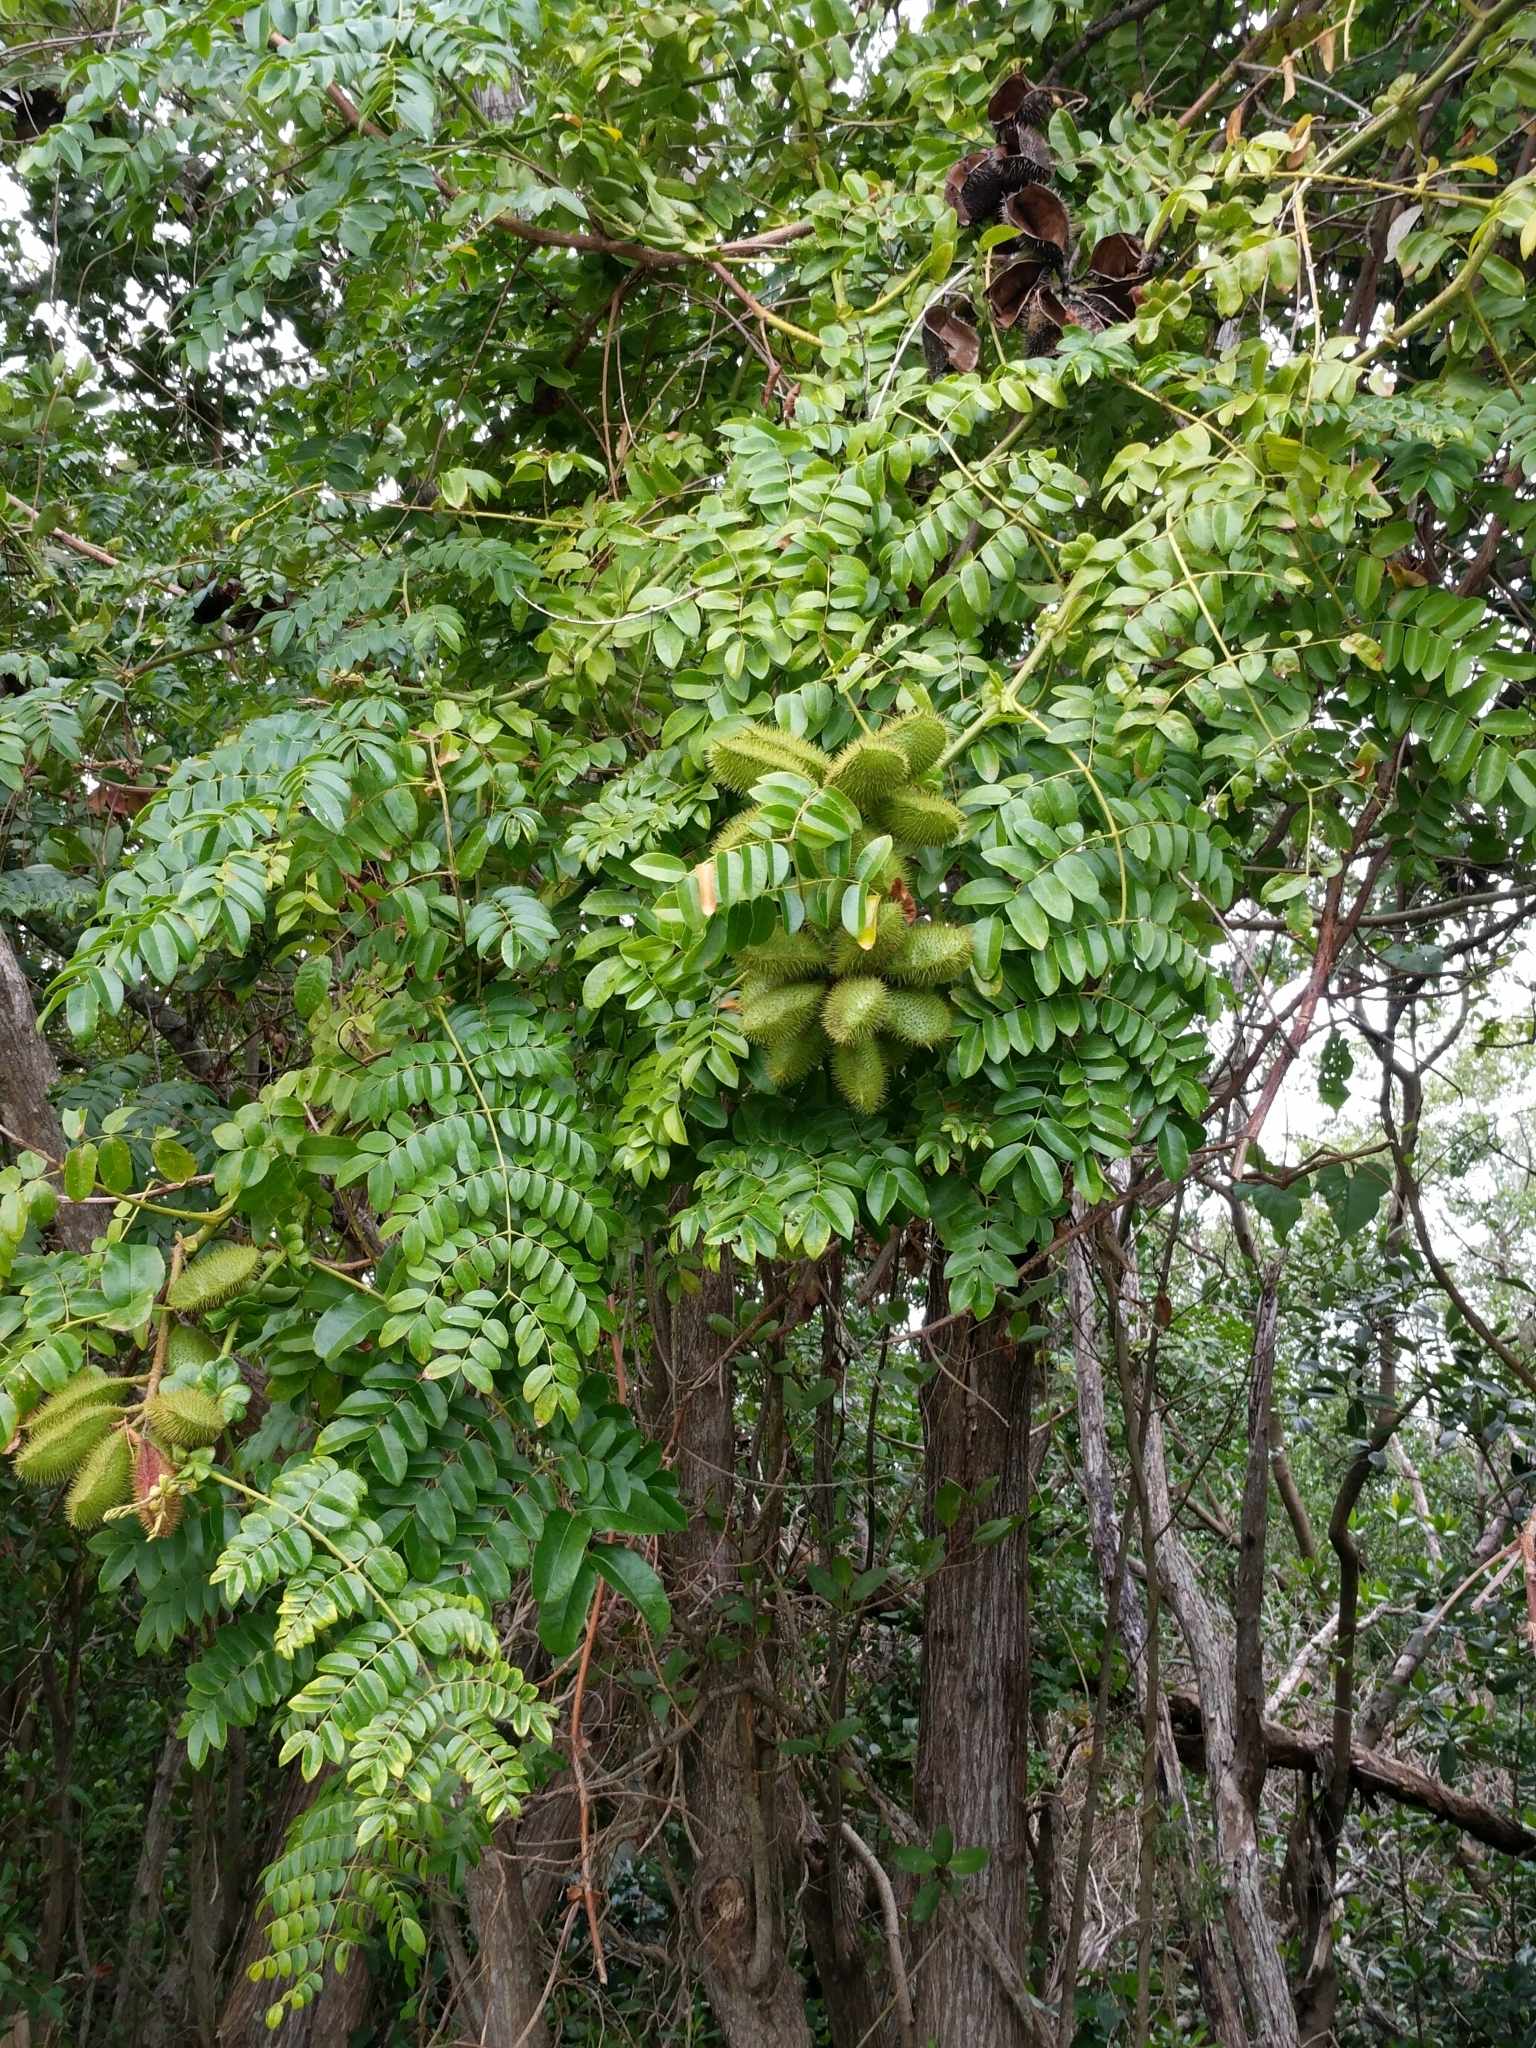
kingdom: Plantae
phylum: Tracheophyta
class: Magnoliopsida
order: Fabales
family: Fabaceae
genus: Guilandina
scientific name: Guilandina bonduc
